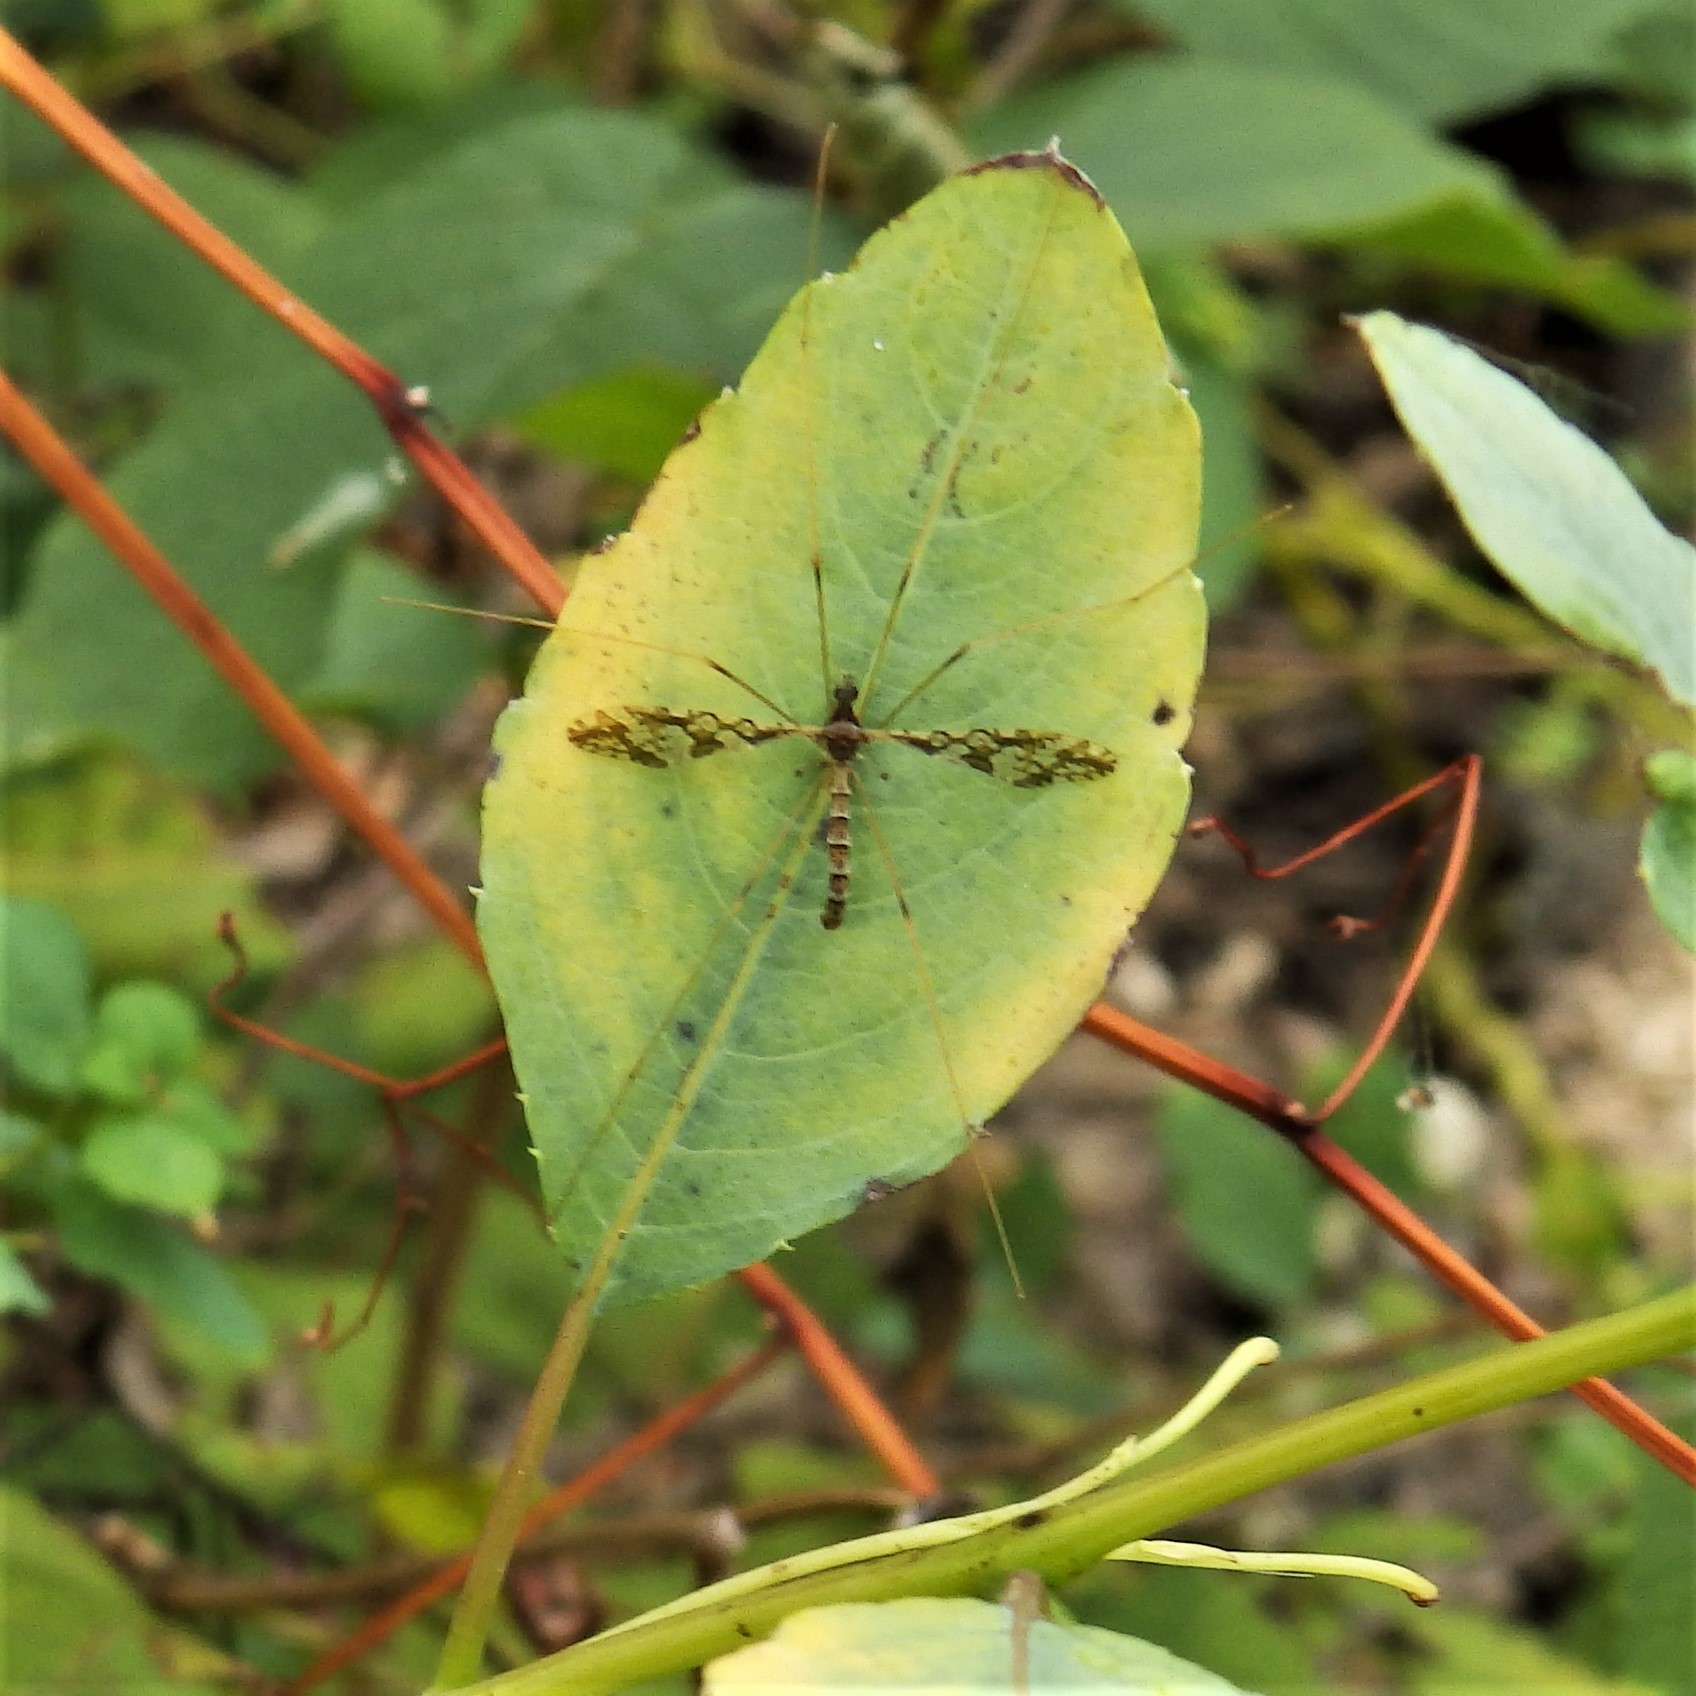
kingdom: Animalia
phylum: Arthropoda
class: Insecta
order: Diptera
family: Limoniidae
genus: Epiphragma
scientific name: Epiphragma solatrix
